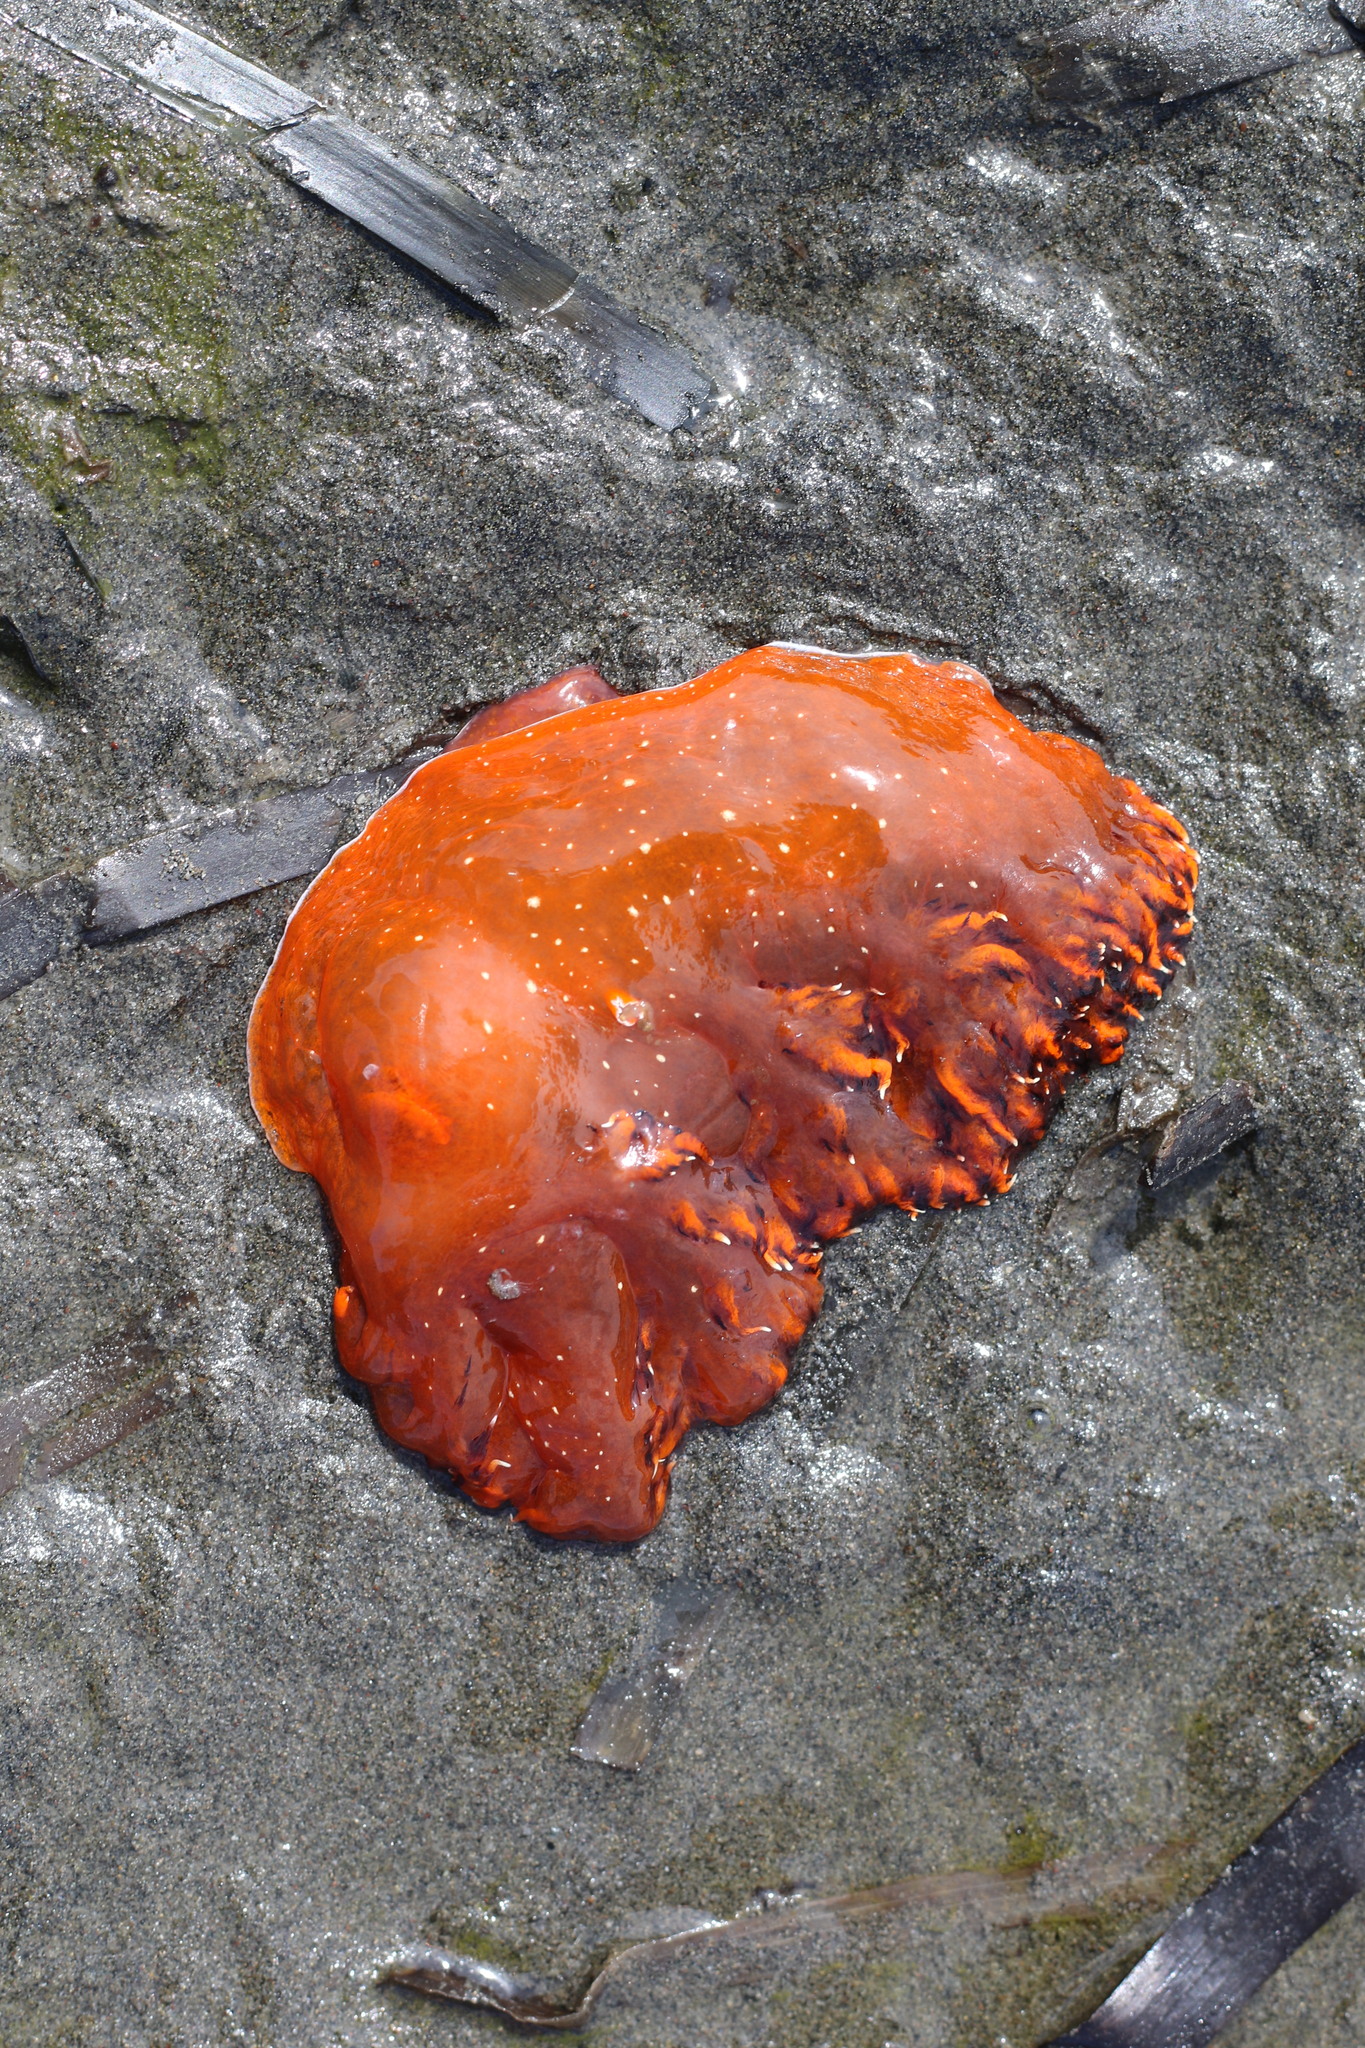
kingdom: Animalia
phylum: Mollusca
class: Gastropoda
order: Nudibranchia
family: Dendronotidae
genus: Dendronotus
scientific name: Dendronotus iris
